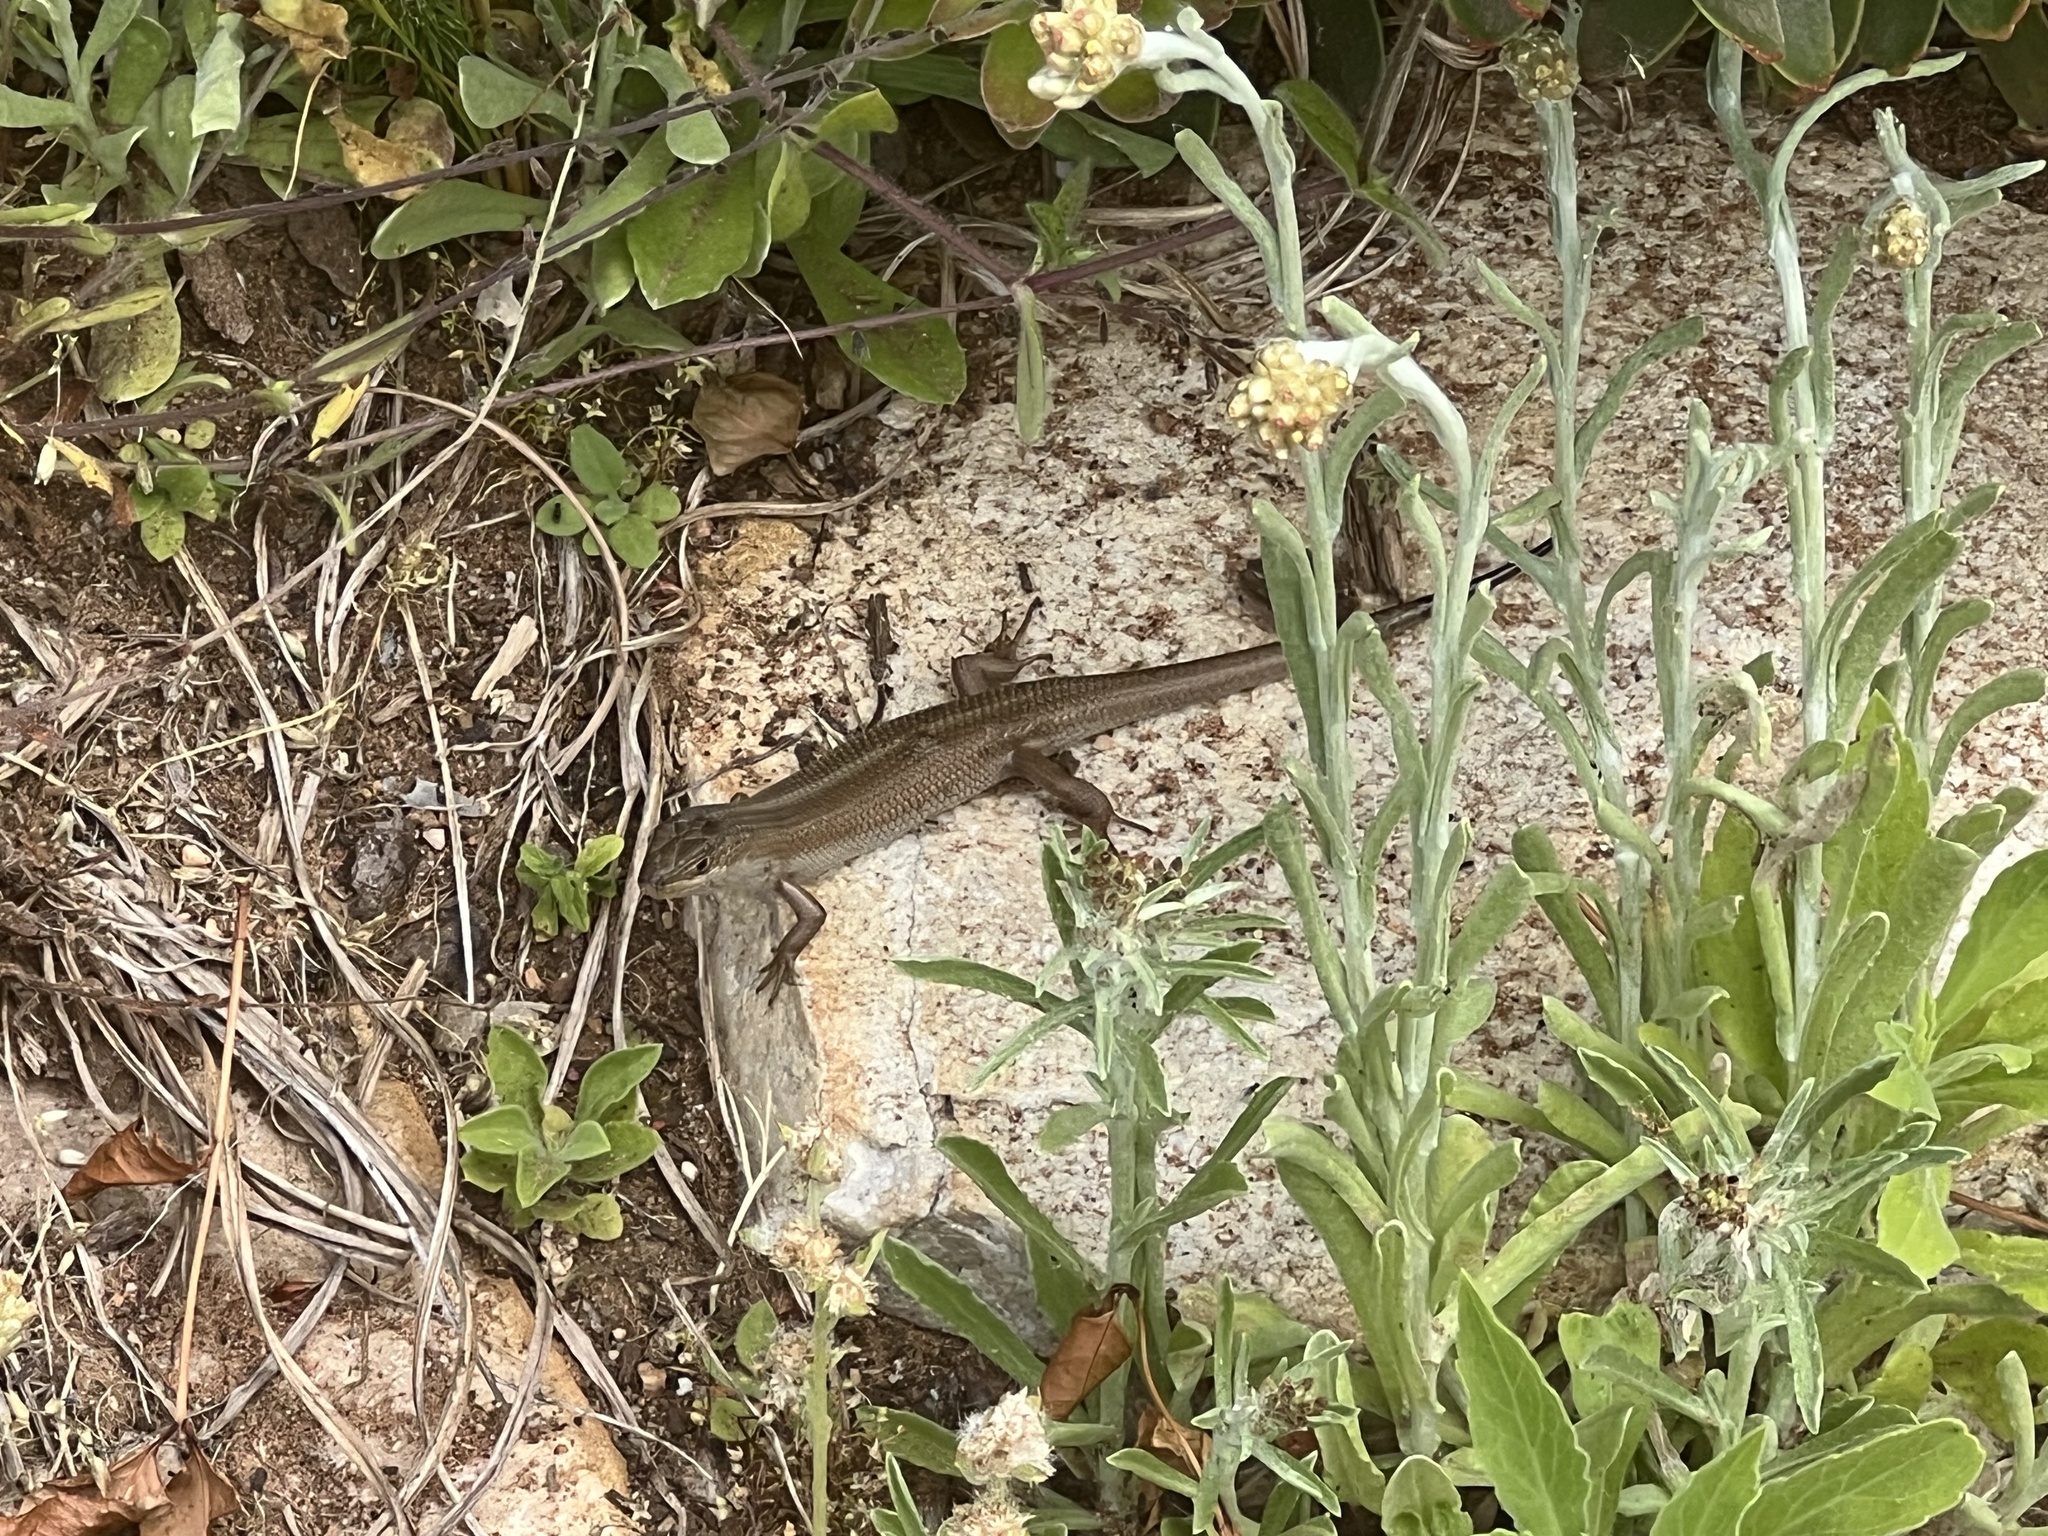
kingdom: Animalia
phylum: Chordata
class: Squamata
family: Scincidae
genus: Trachylepis
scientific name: Trachylepis capensis
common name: Cape skink
